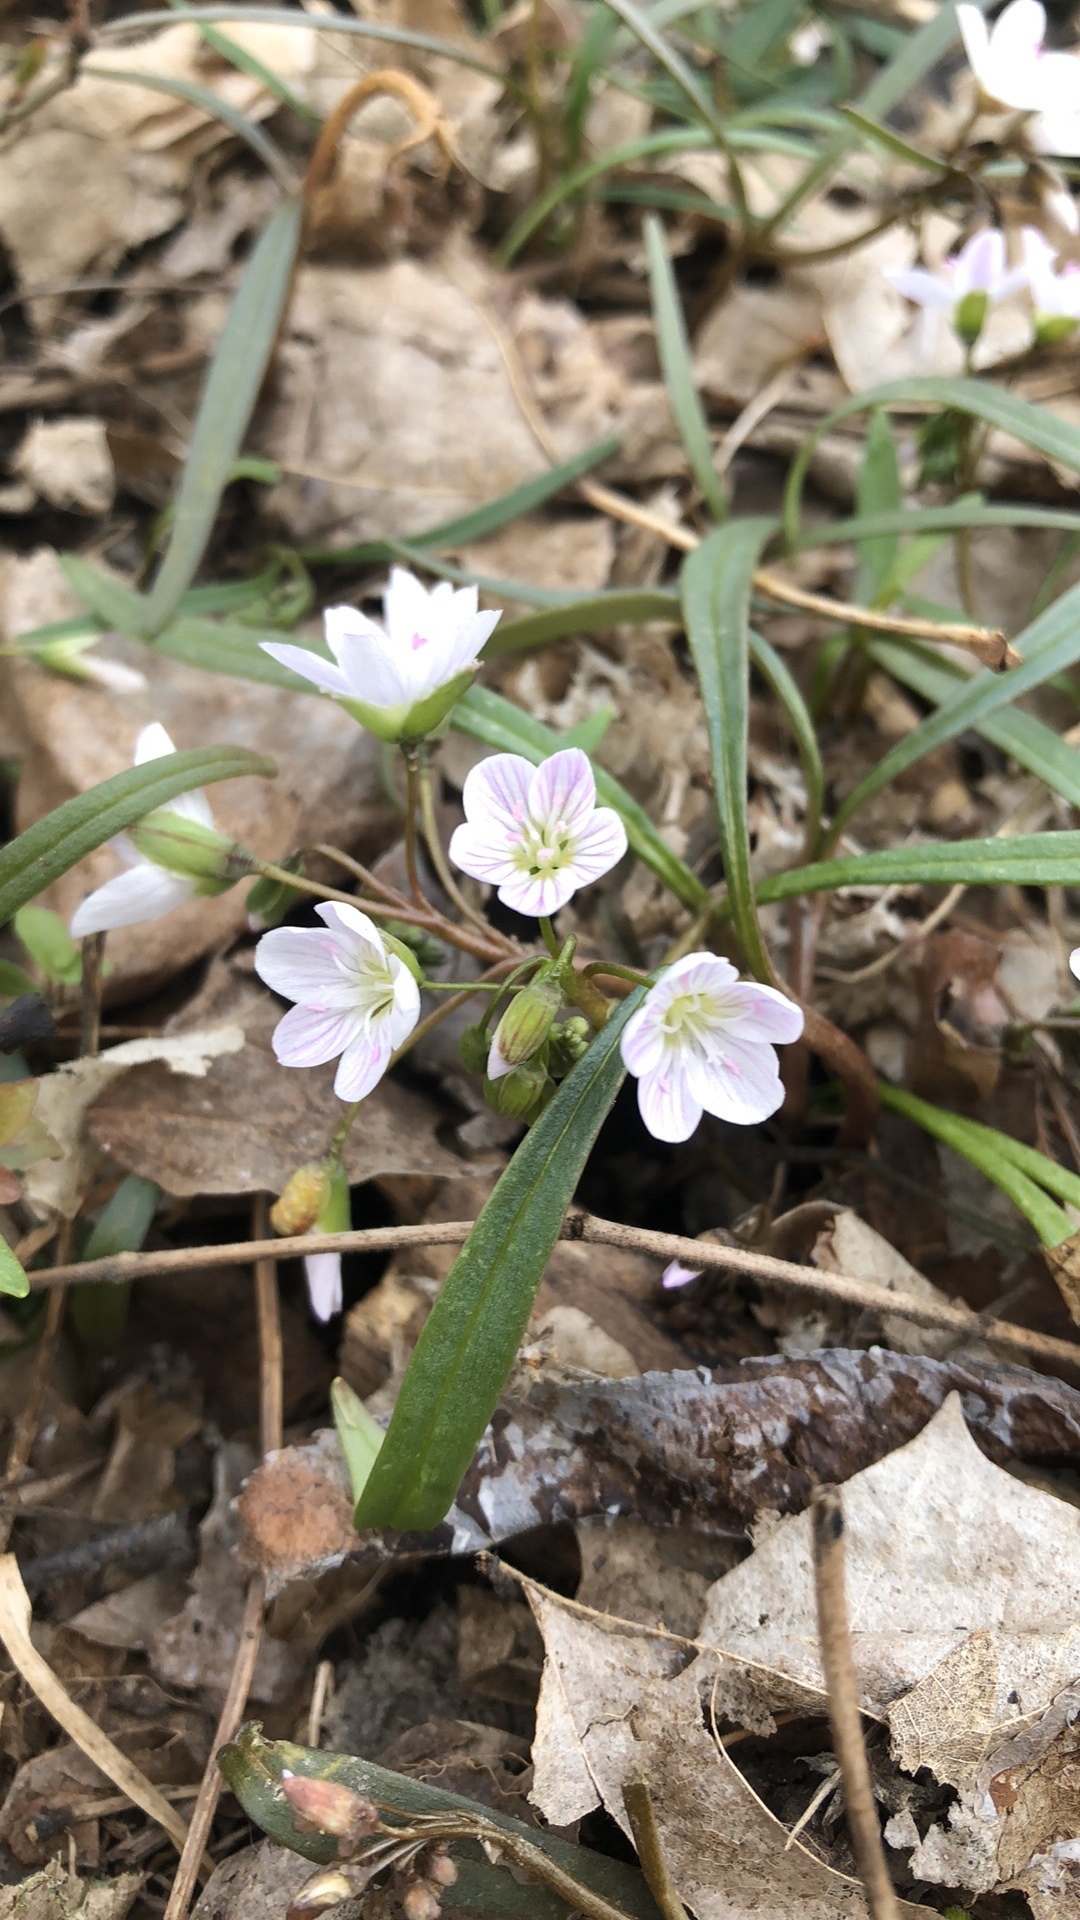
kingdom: Plantae
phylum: Tracheophyta
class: Magnoliopsida
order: Caryophyllales
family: Montiaceae
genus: Claytonia
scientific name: Claytonia virginica
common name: Virginia springbeauty
